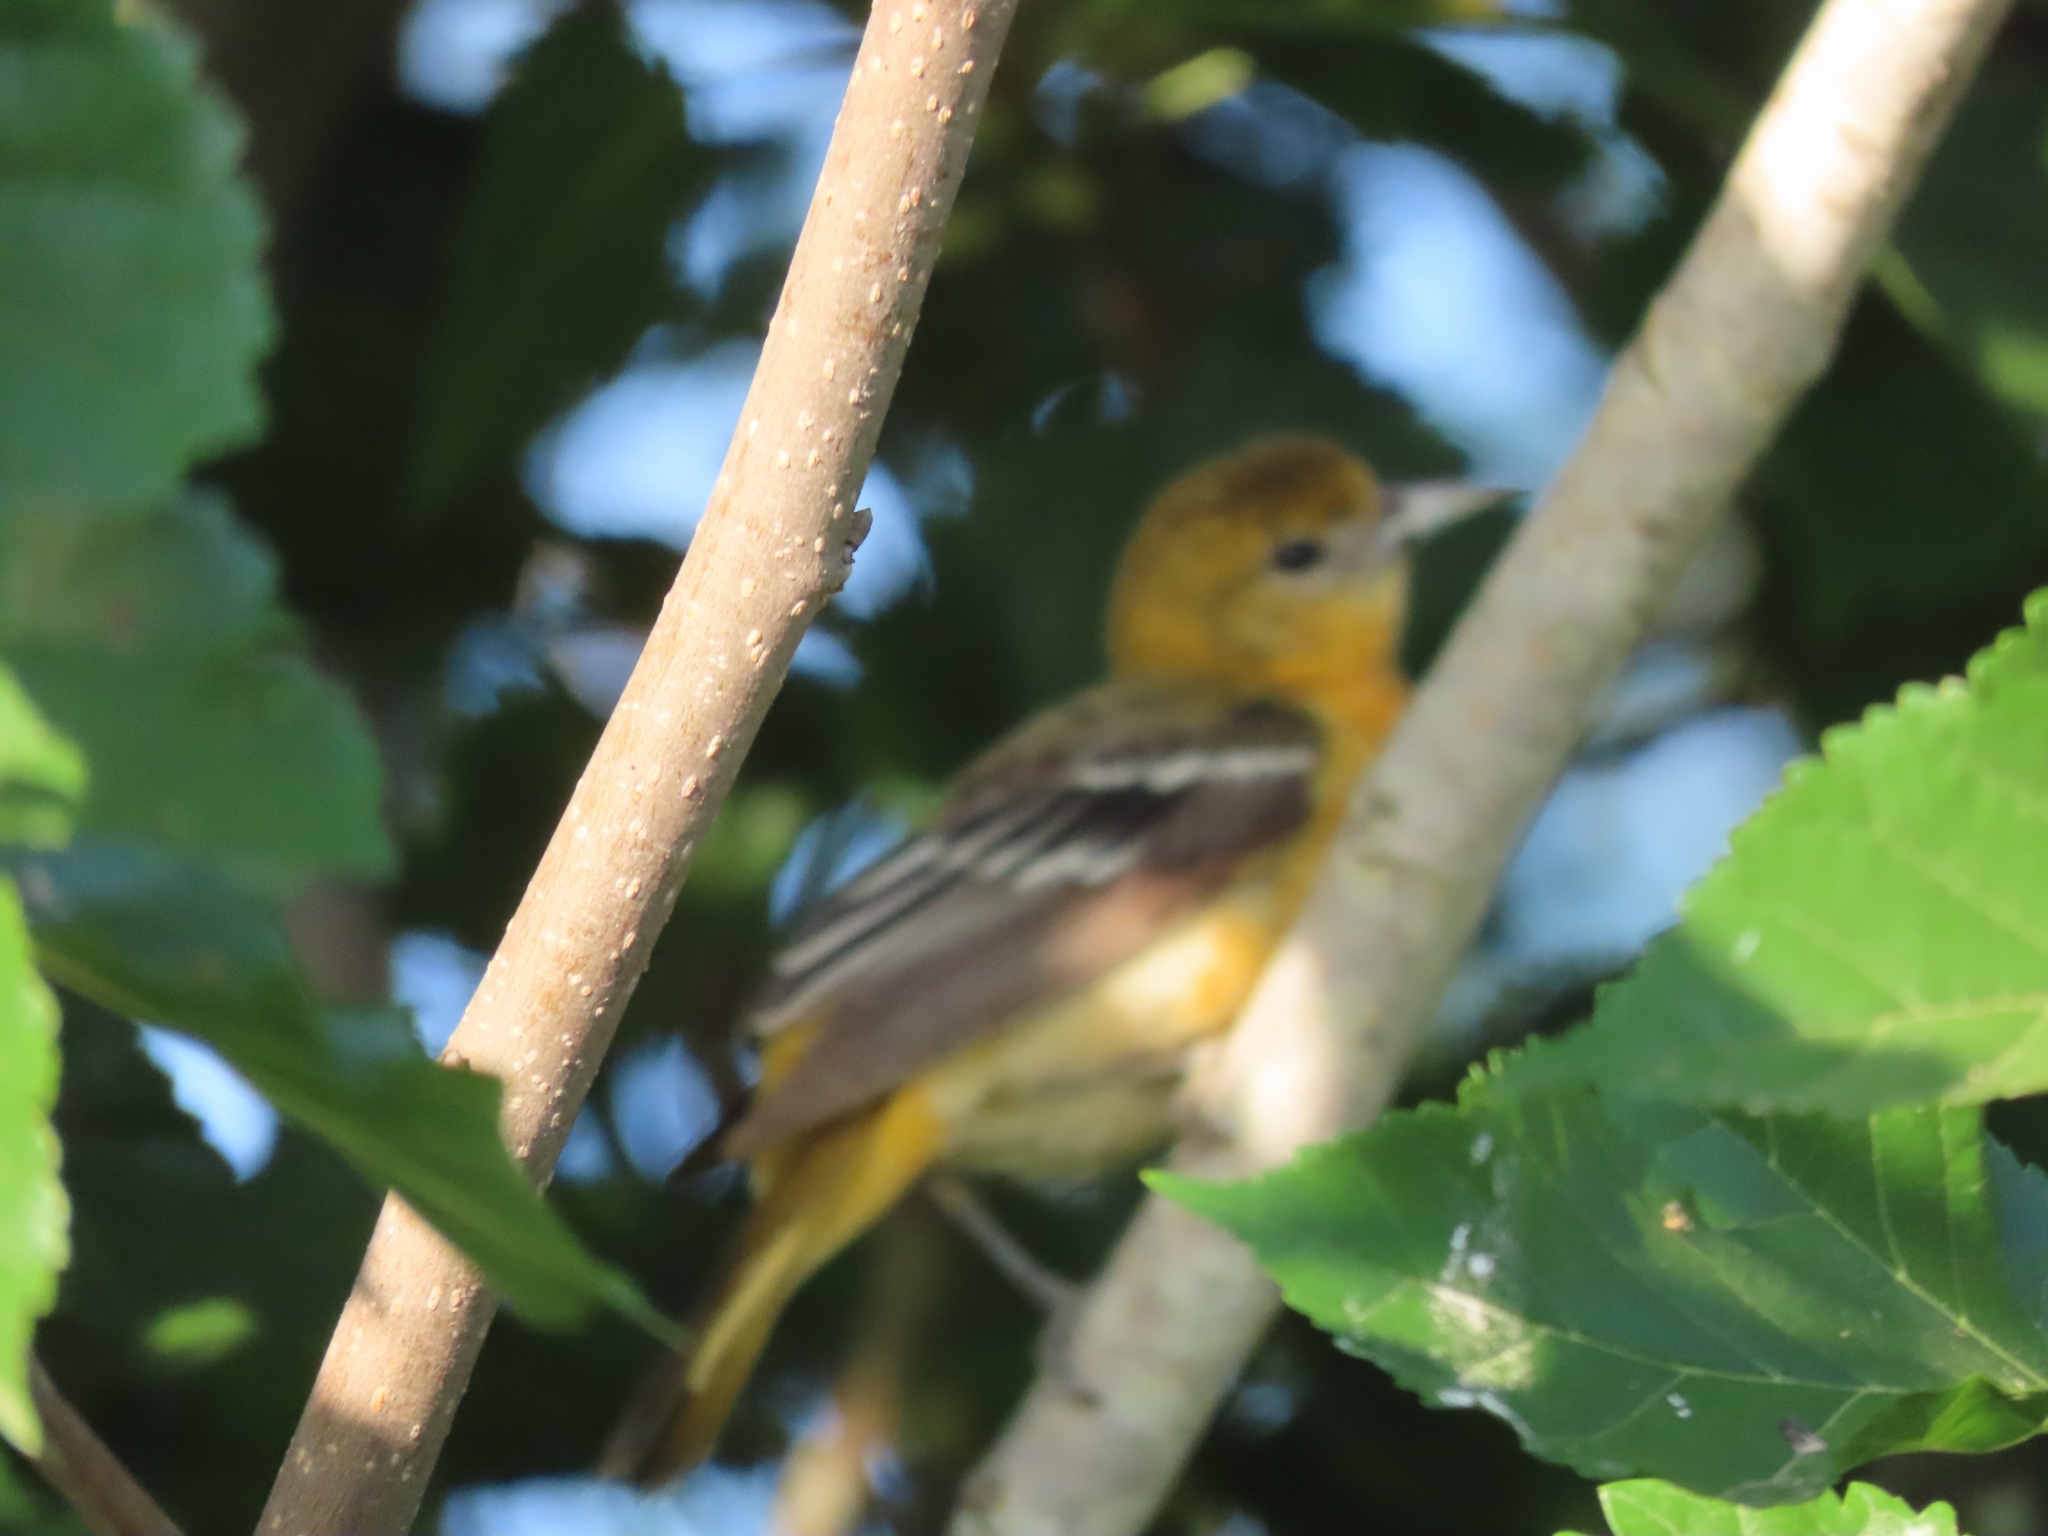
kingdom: Animalia
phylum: Chordata
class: Aves
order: Passeriformes
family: Icteridae
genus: Icterus
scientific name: Icterus galbula
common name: Baltimore oriole
